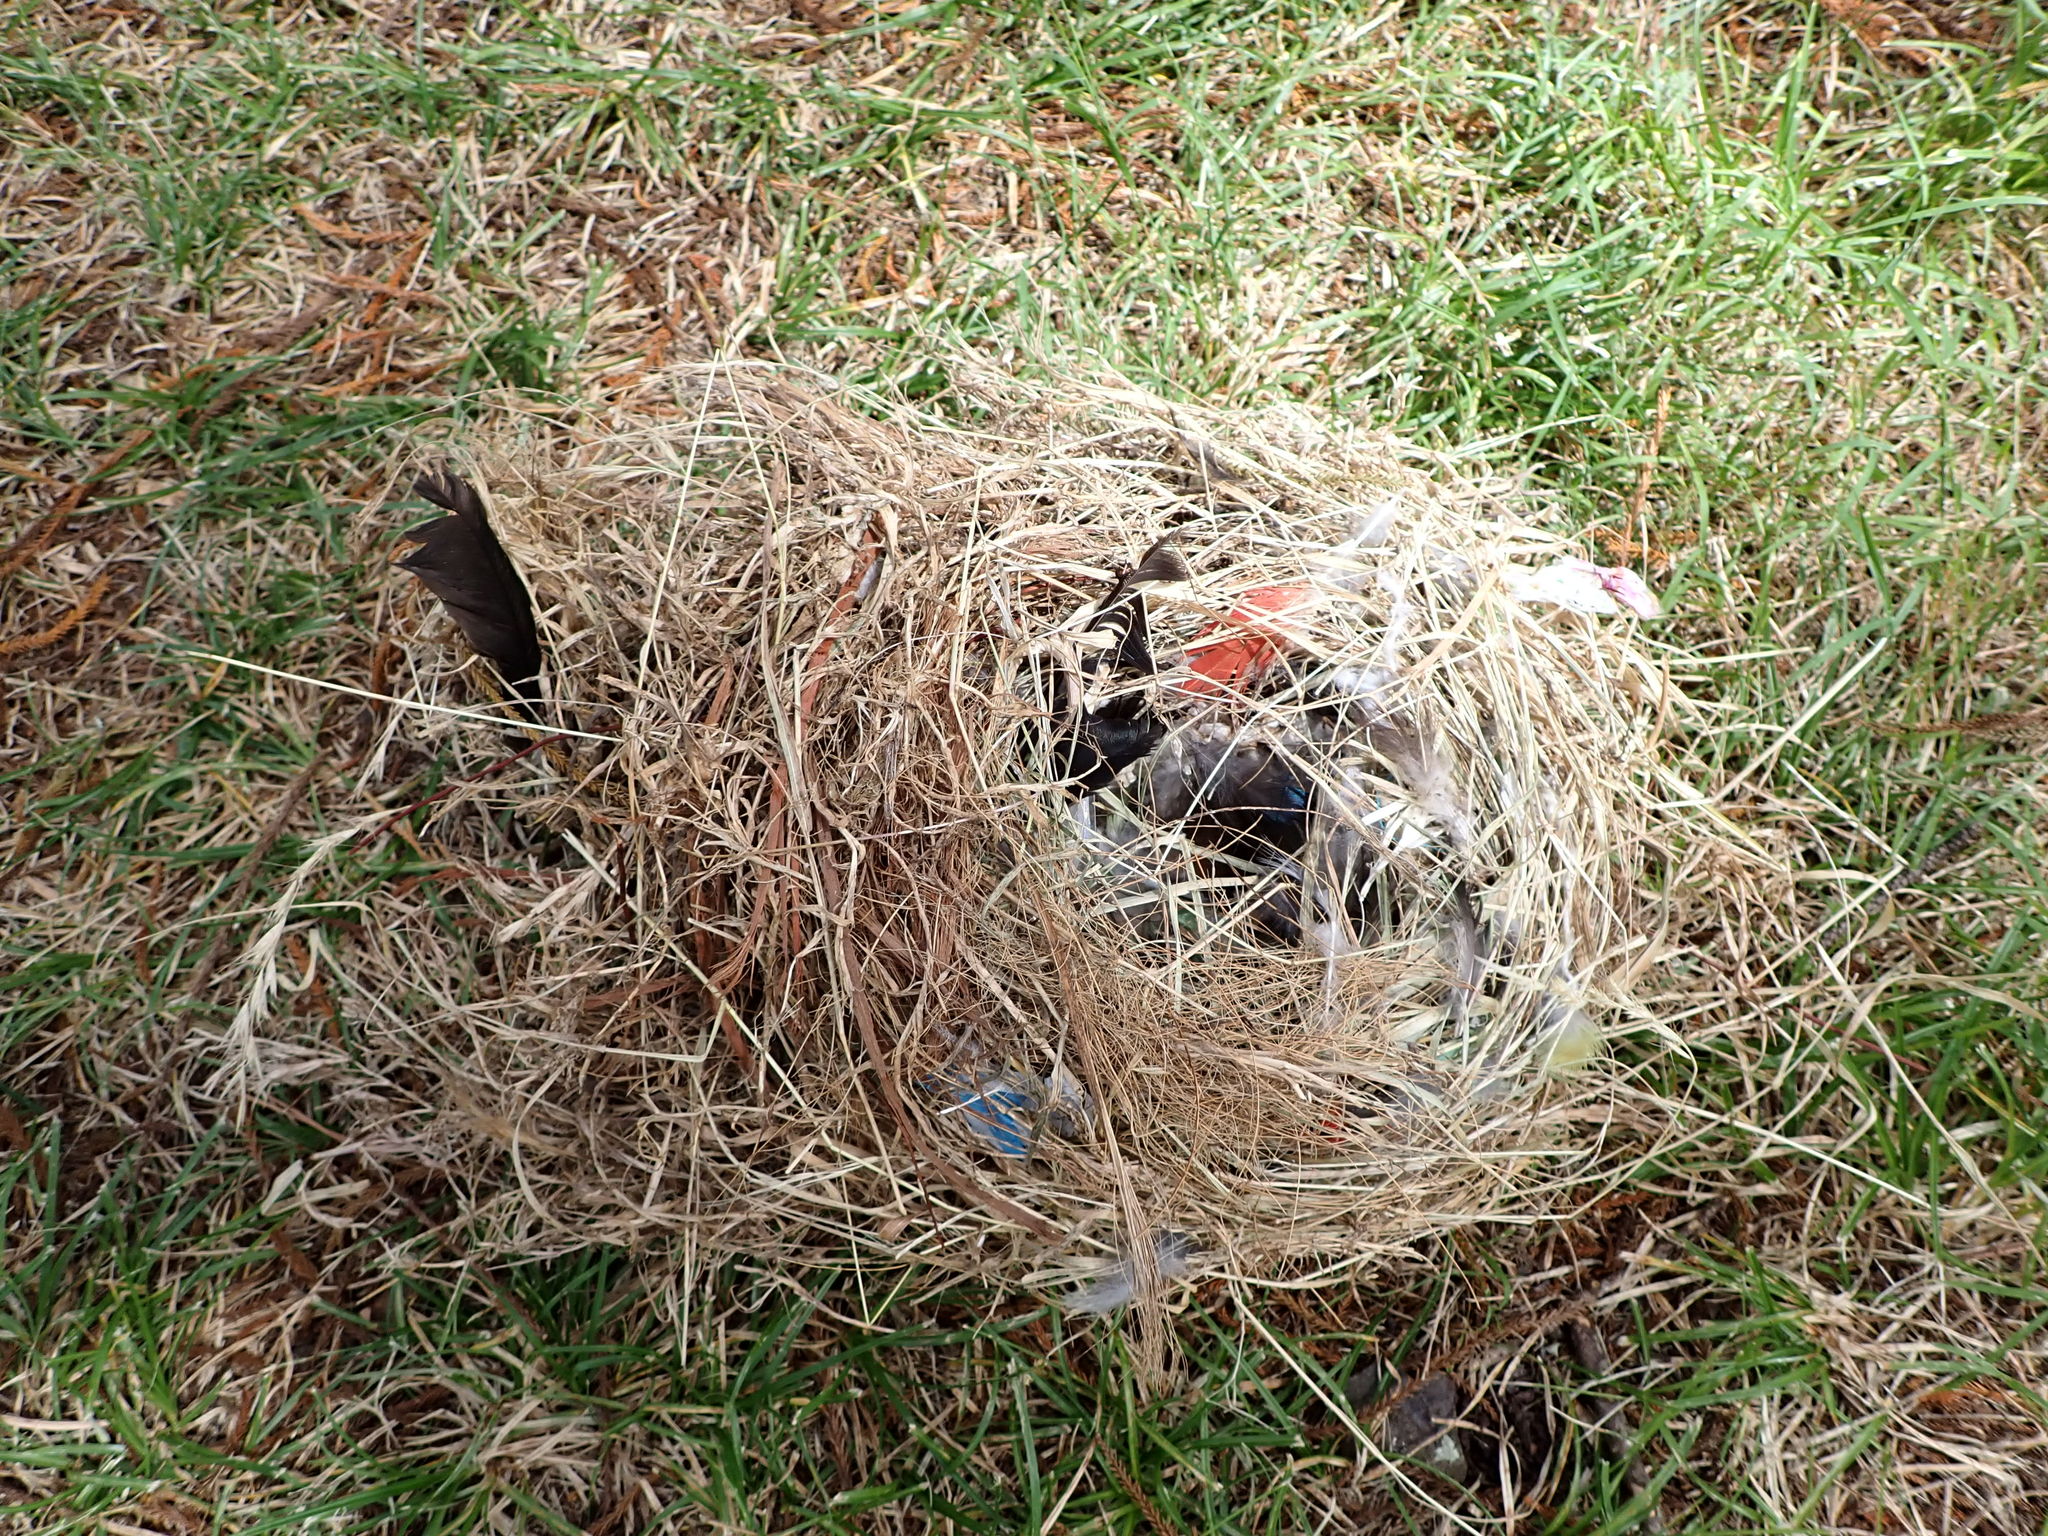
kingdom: Animalia
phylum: Chordata
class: Aves
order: Psittaciformes
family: Psittacidae
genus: Platycercus
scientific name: Platycercus eximius
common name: Eastern rosella
